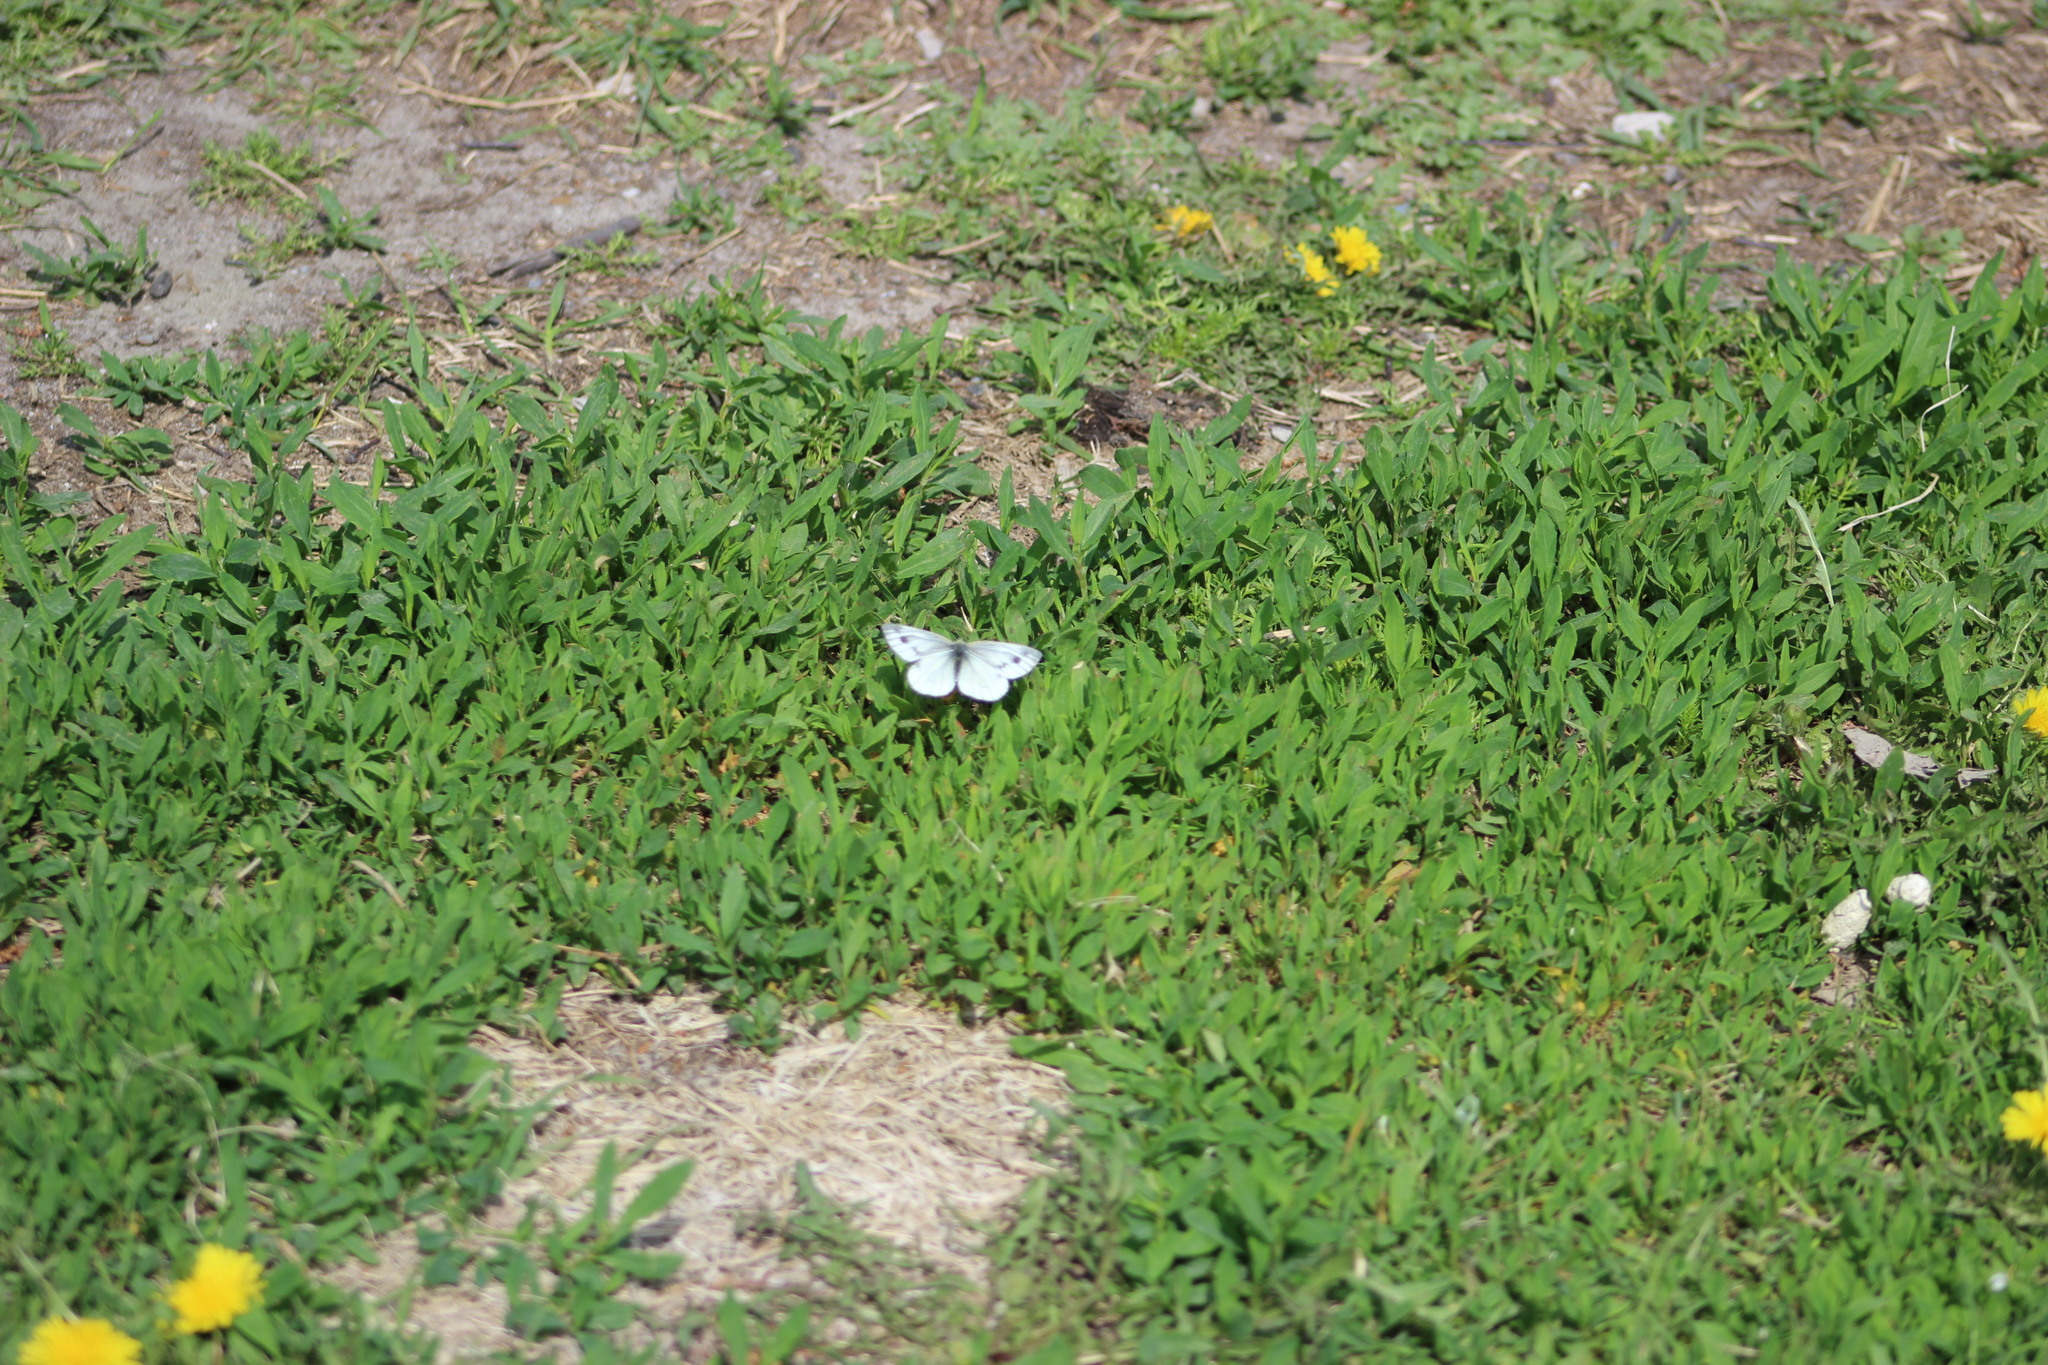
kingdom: Animalia
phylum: Arthropoda
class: Insecta
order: Lepidoptera
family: Pieridae
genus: Pieris
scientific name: Pieris napi
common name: Green-veined white
